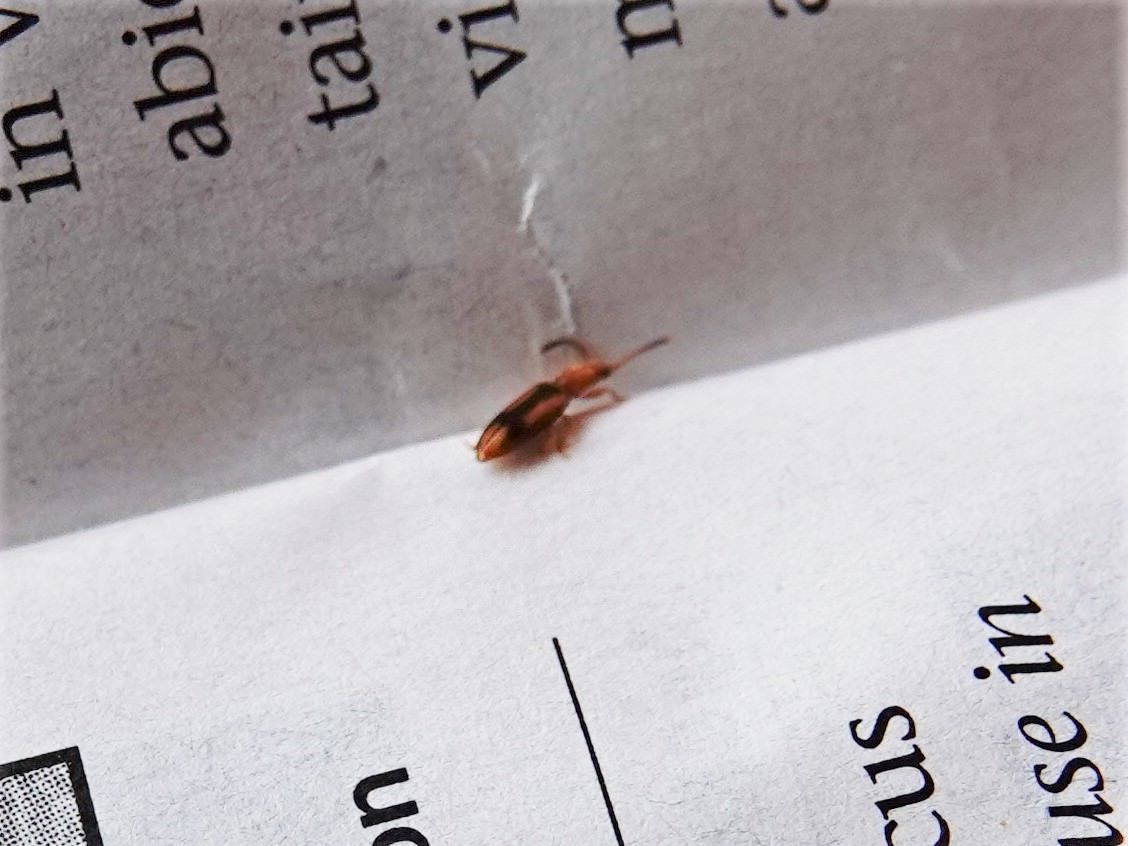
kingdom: Animalia
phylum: Arthropoda
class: Insecta
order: Coleoptera
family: Silvanidae
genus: Cryptamorpha
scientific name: Cryptamorpha desjardinsi
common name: Cryptamorpha
